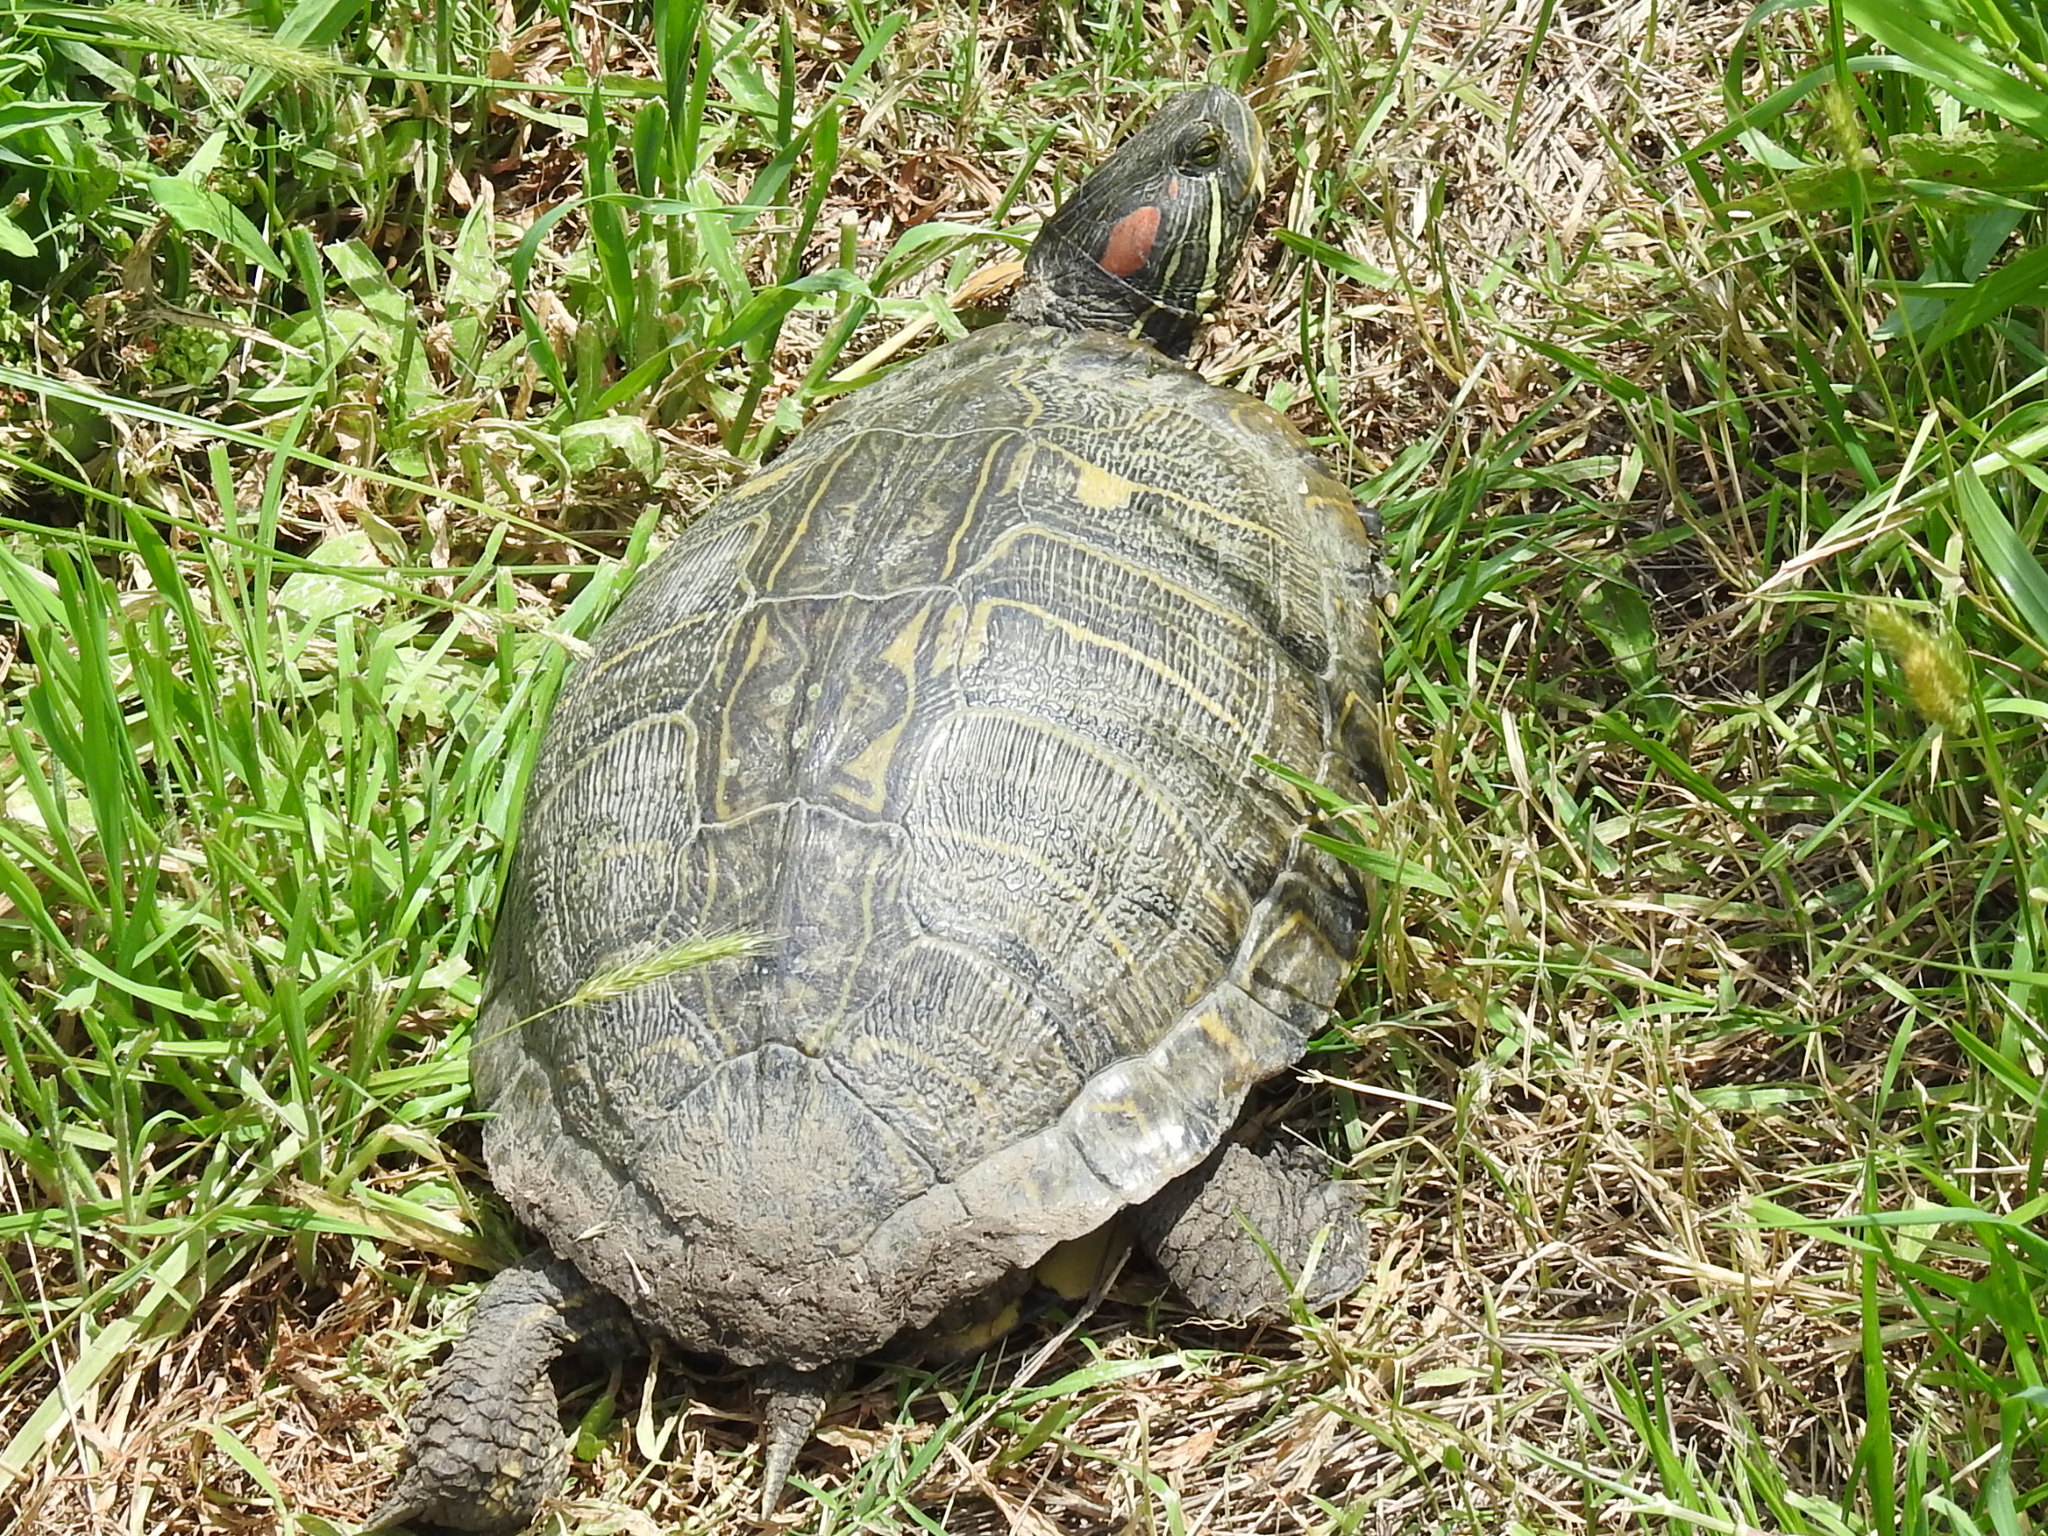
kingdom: Animalia
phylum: Chordata
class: Testudines
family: Emydidae
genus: Trachemys
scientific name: Trachemys scripta
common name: Slider
